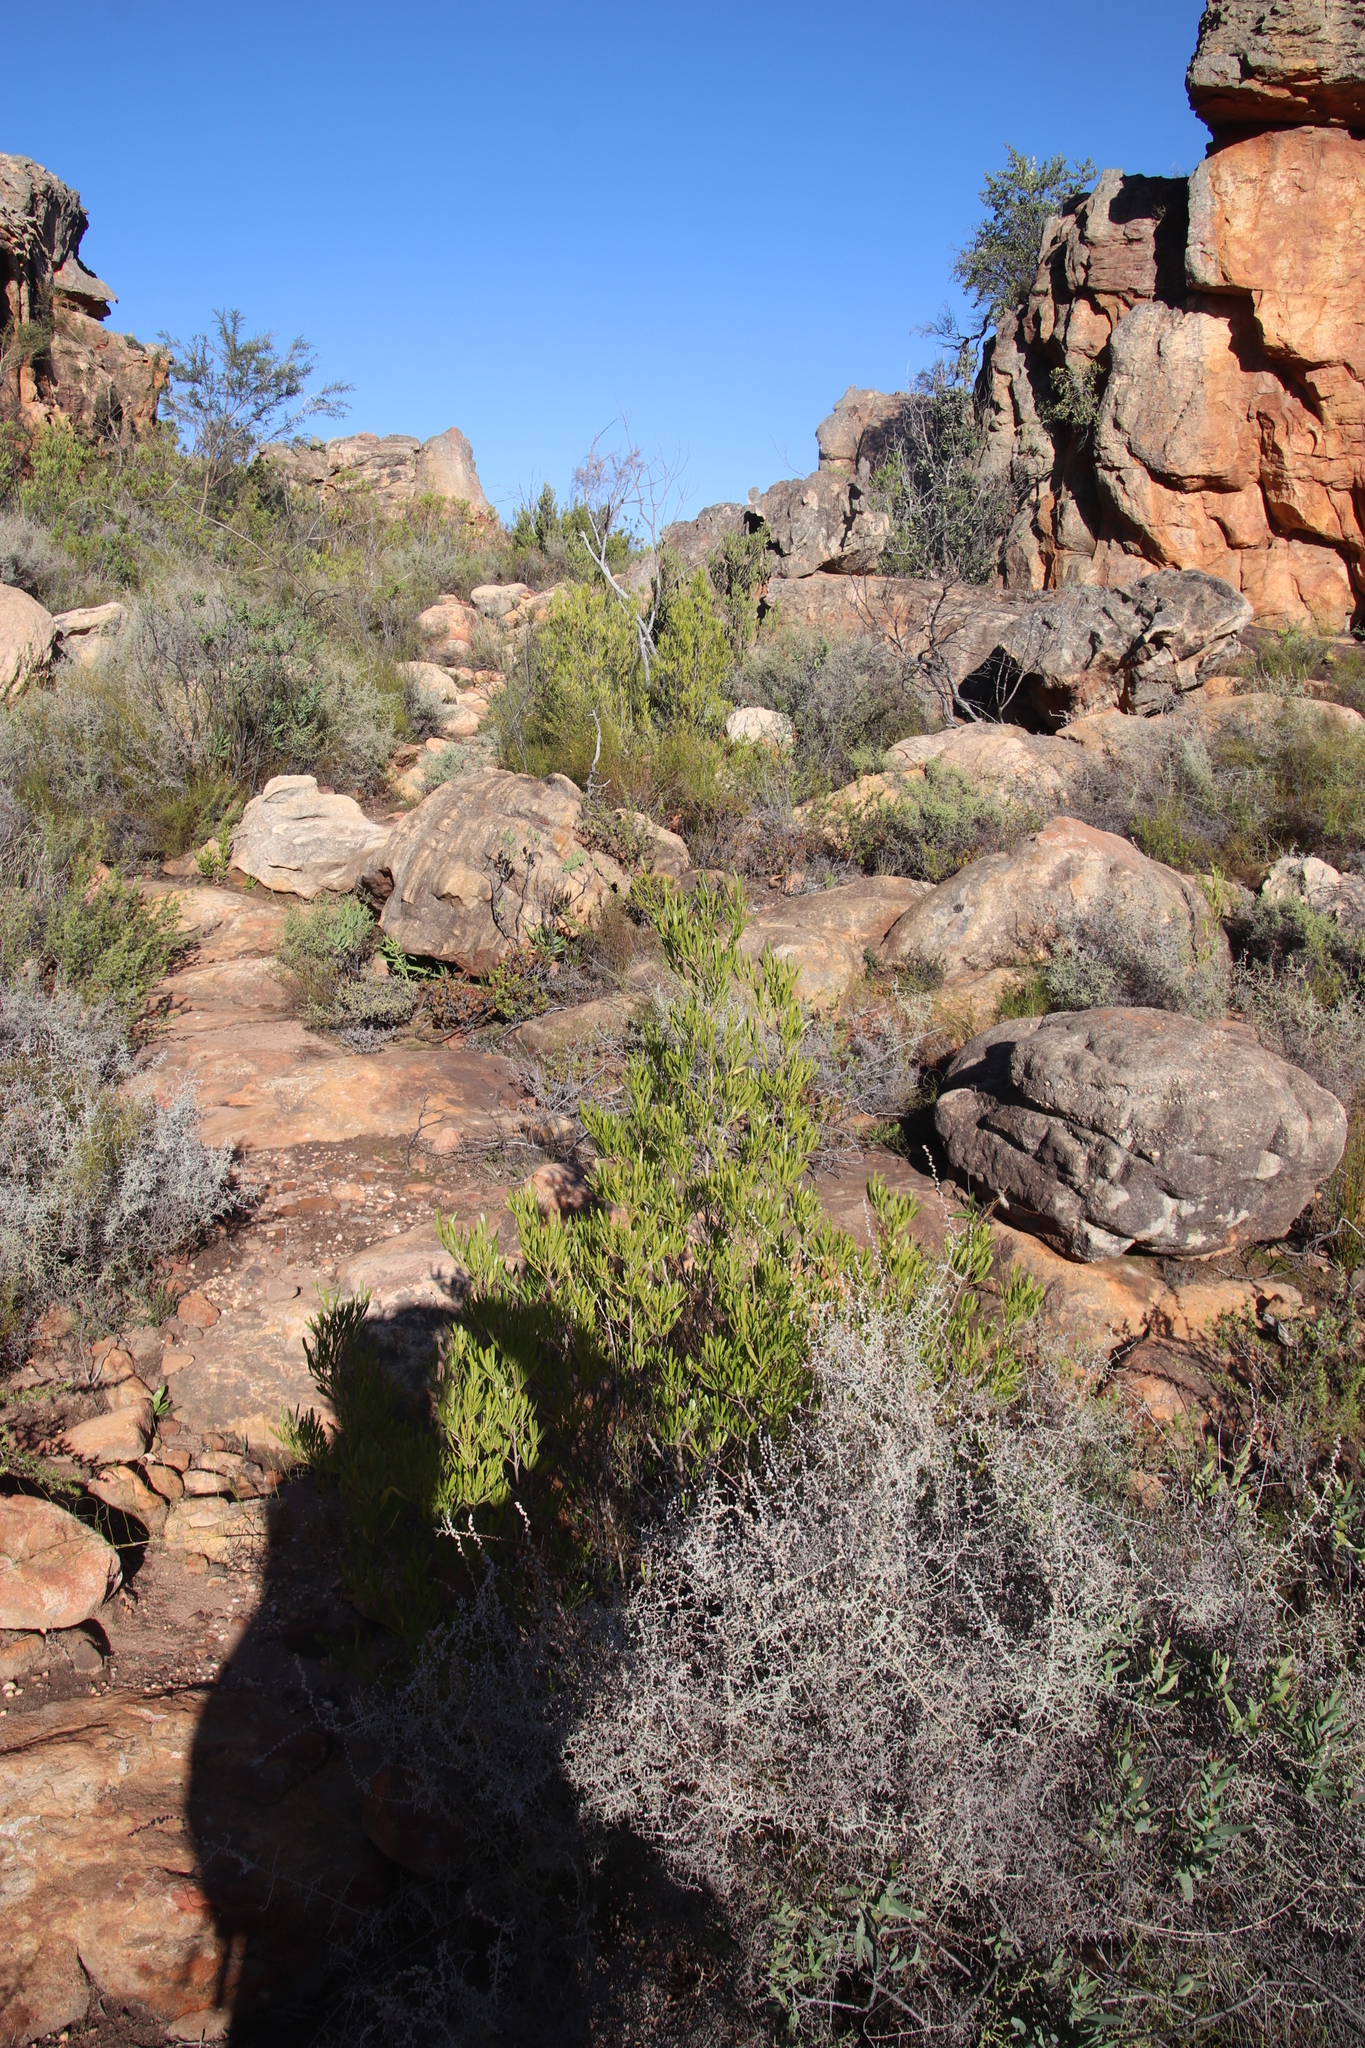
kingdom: Plantae
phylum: Tracheophyta
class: Magnoliopsida
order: Sapindales
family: Sapindaceae
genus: Dodonaea
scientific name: Dodonaea viscosa
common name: Hopbush
